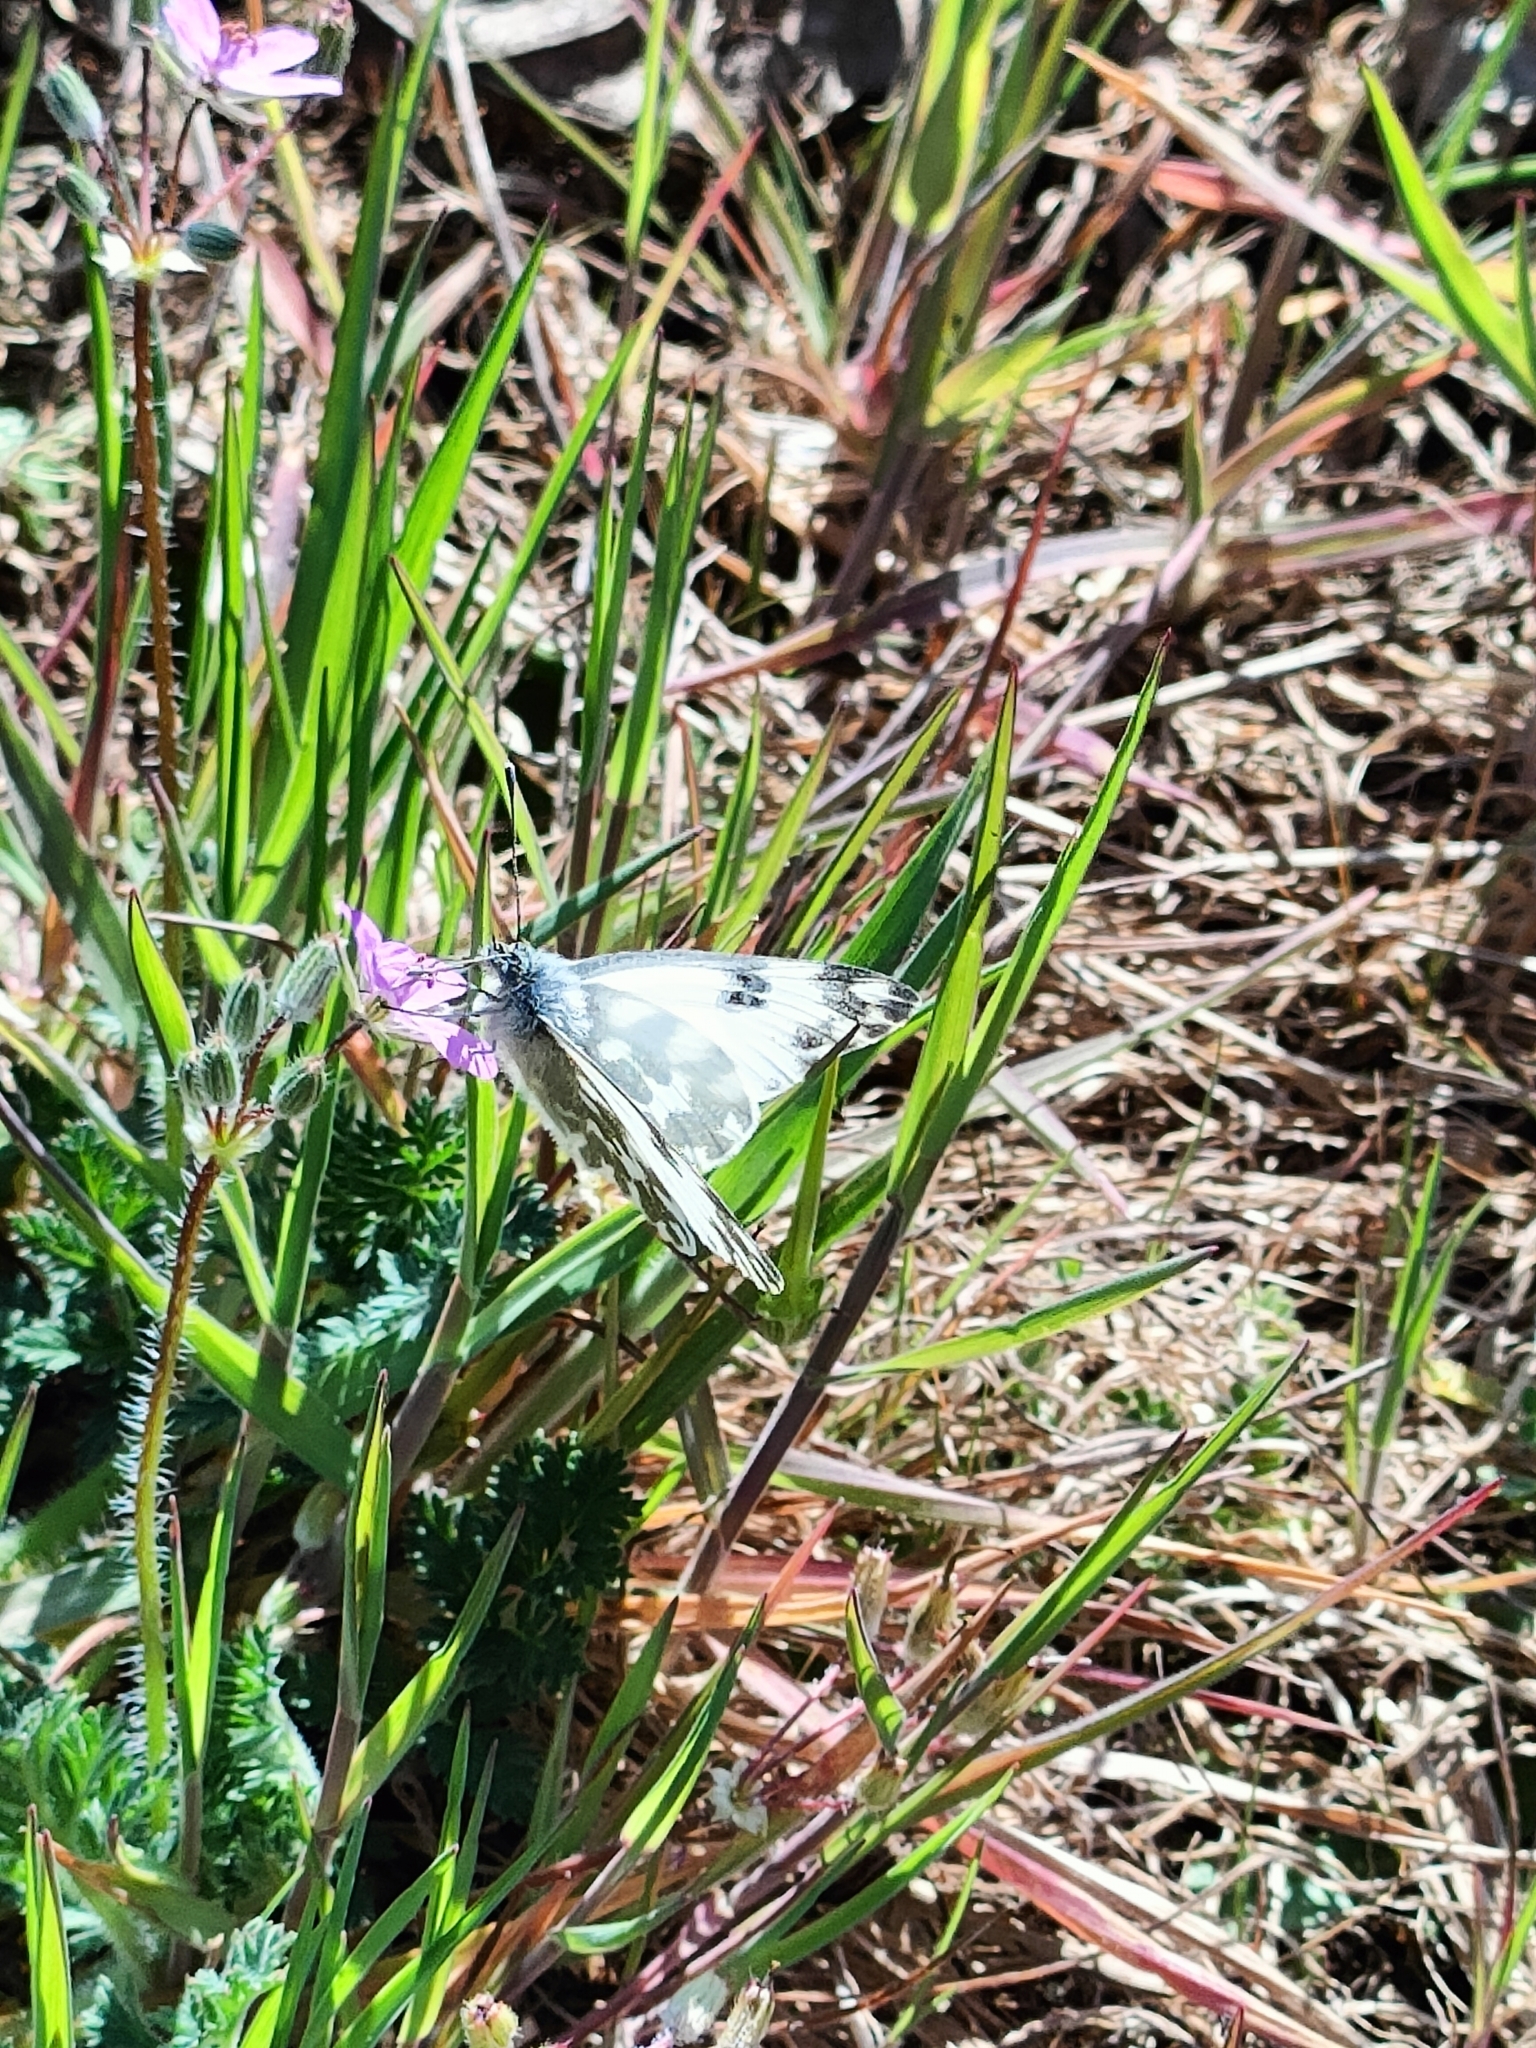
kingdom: Animalia
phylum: Arthropoda
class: Insecta
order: Lepidoptera
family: Pieridae
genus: Pontia
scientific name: Pontia edusa
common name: Eastern bath white
